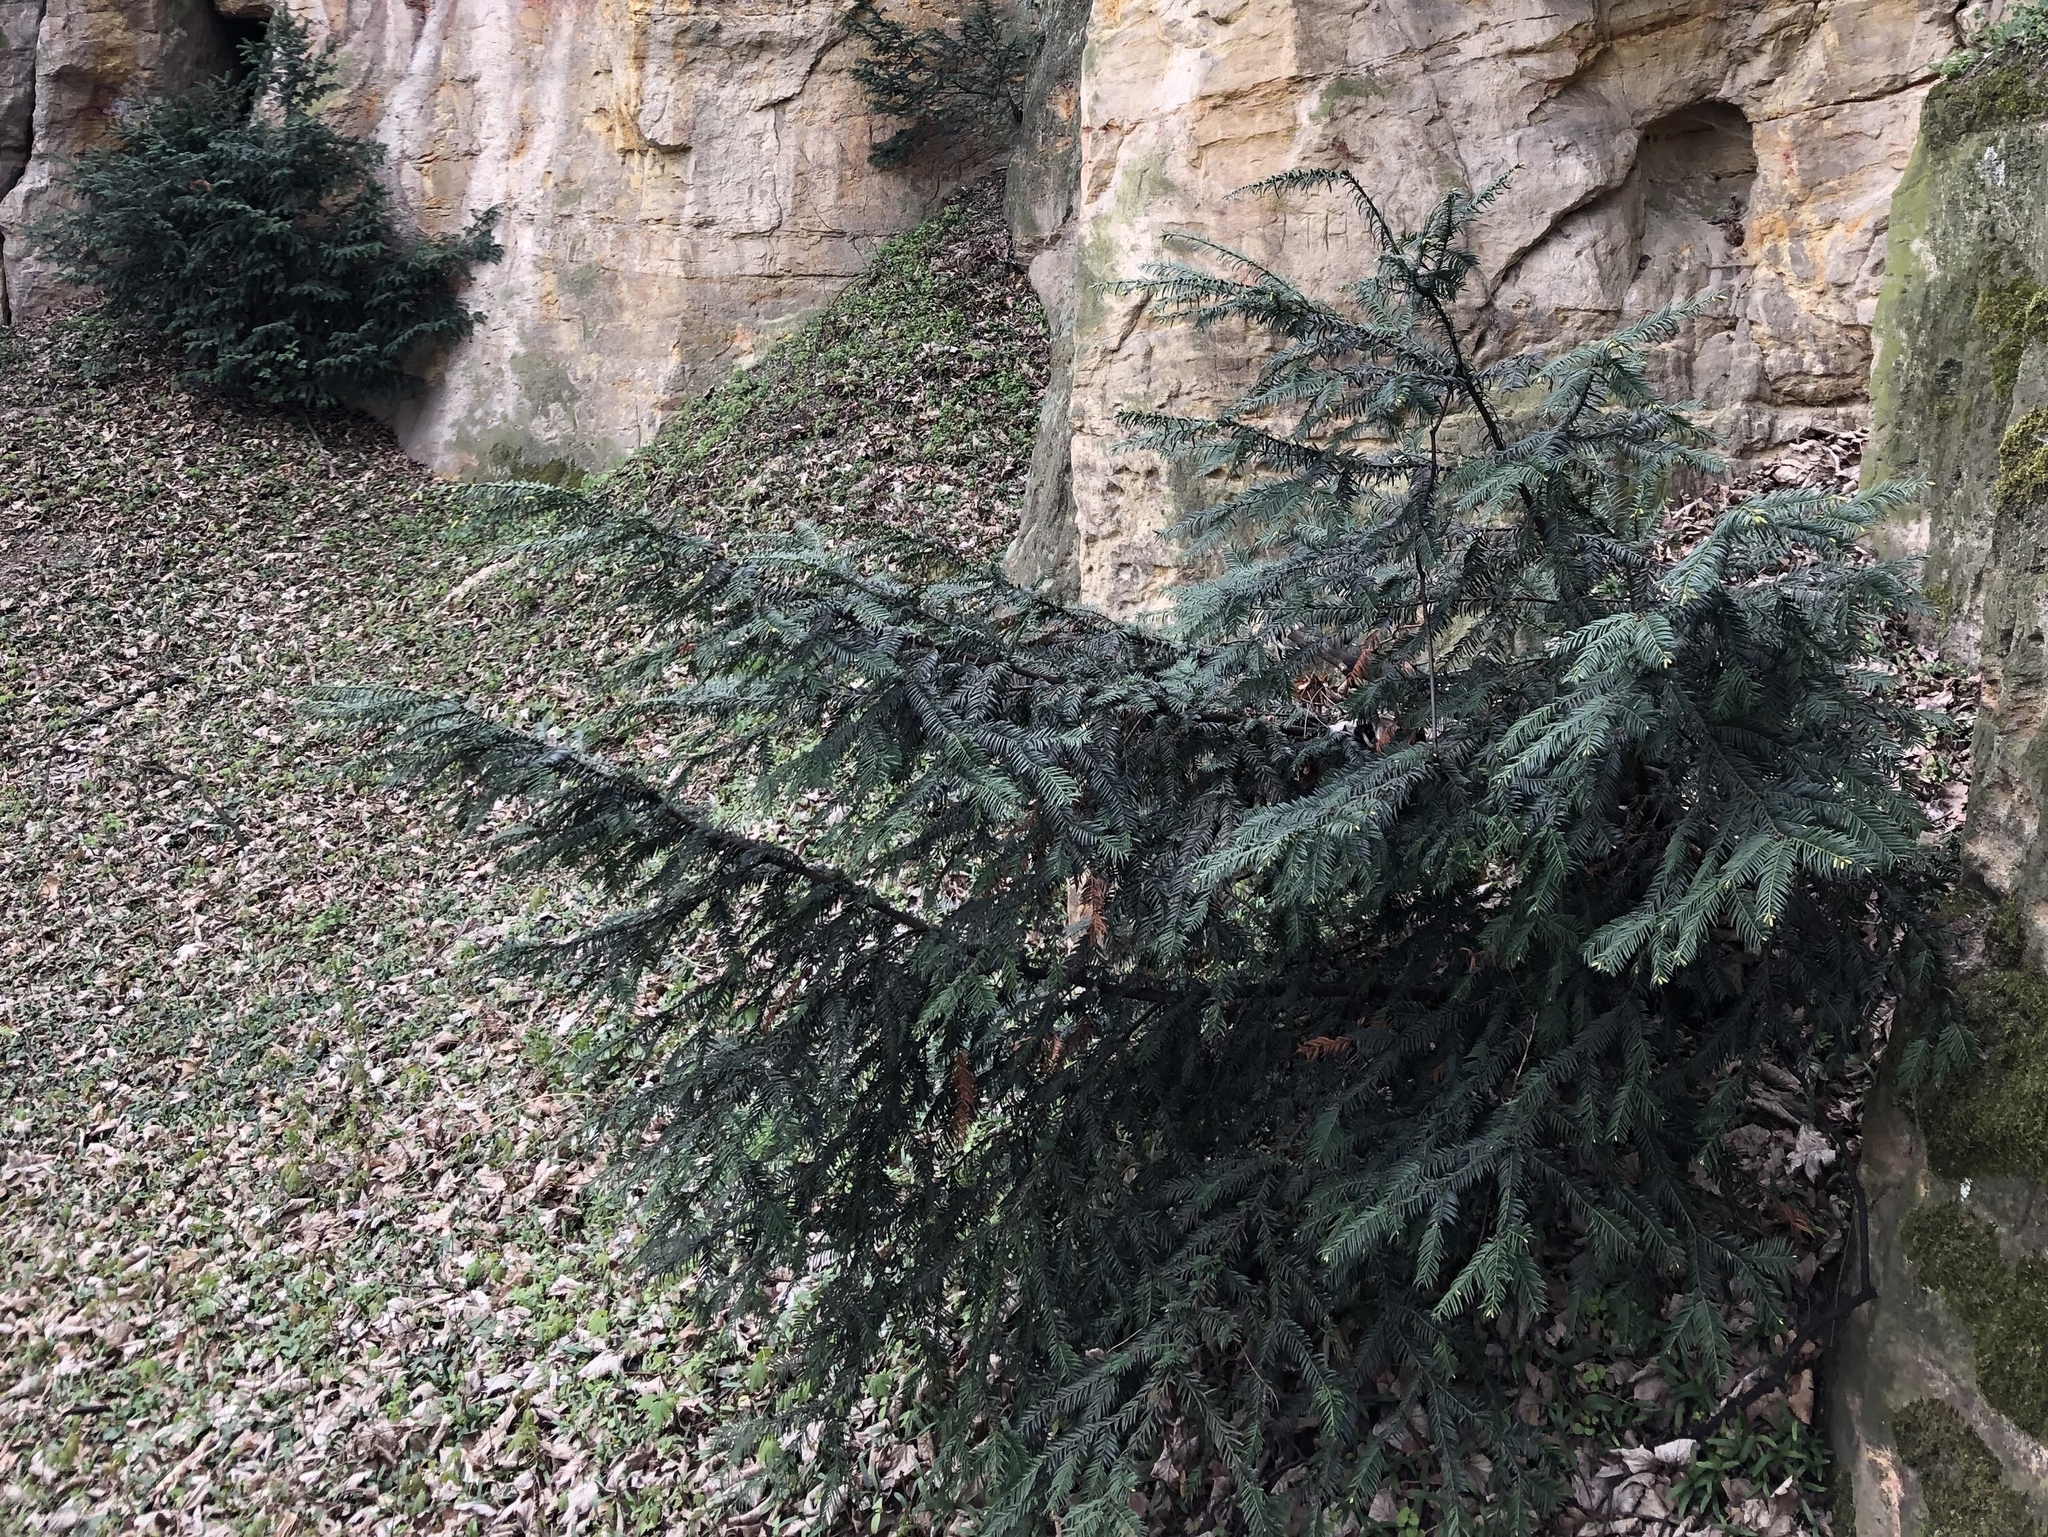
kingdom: Plantae
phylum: Tracheophyta
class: Pinopsida
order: Pinales
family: Taxaceae
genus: Taxus
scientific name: Taxus baccata
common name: Yew
